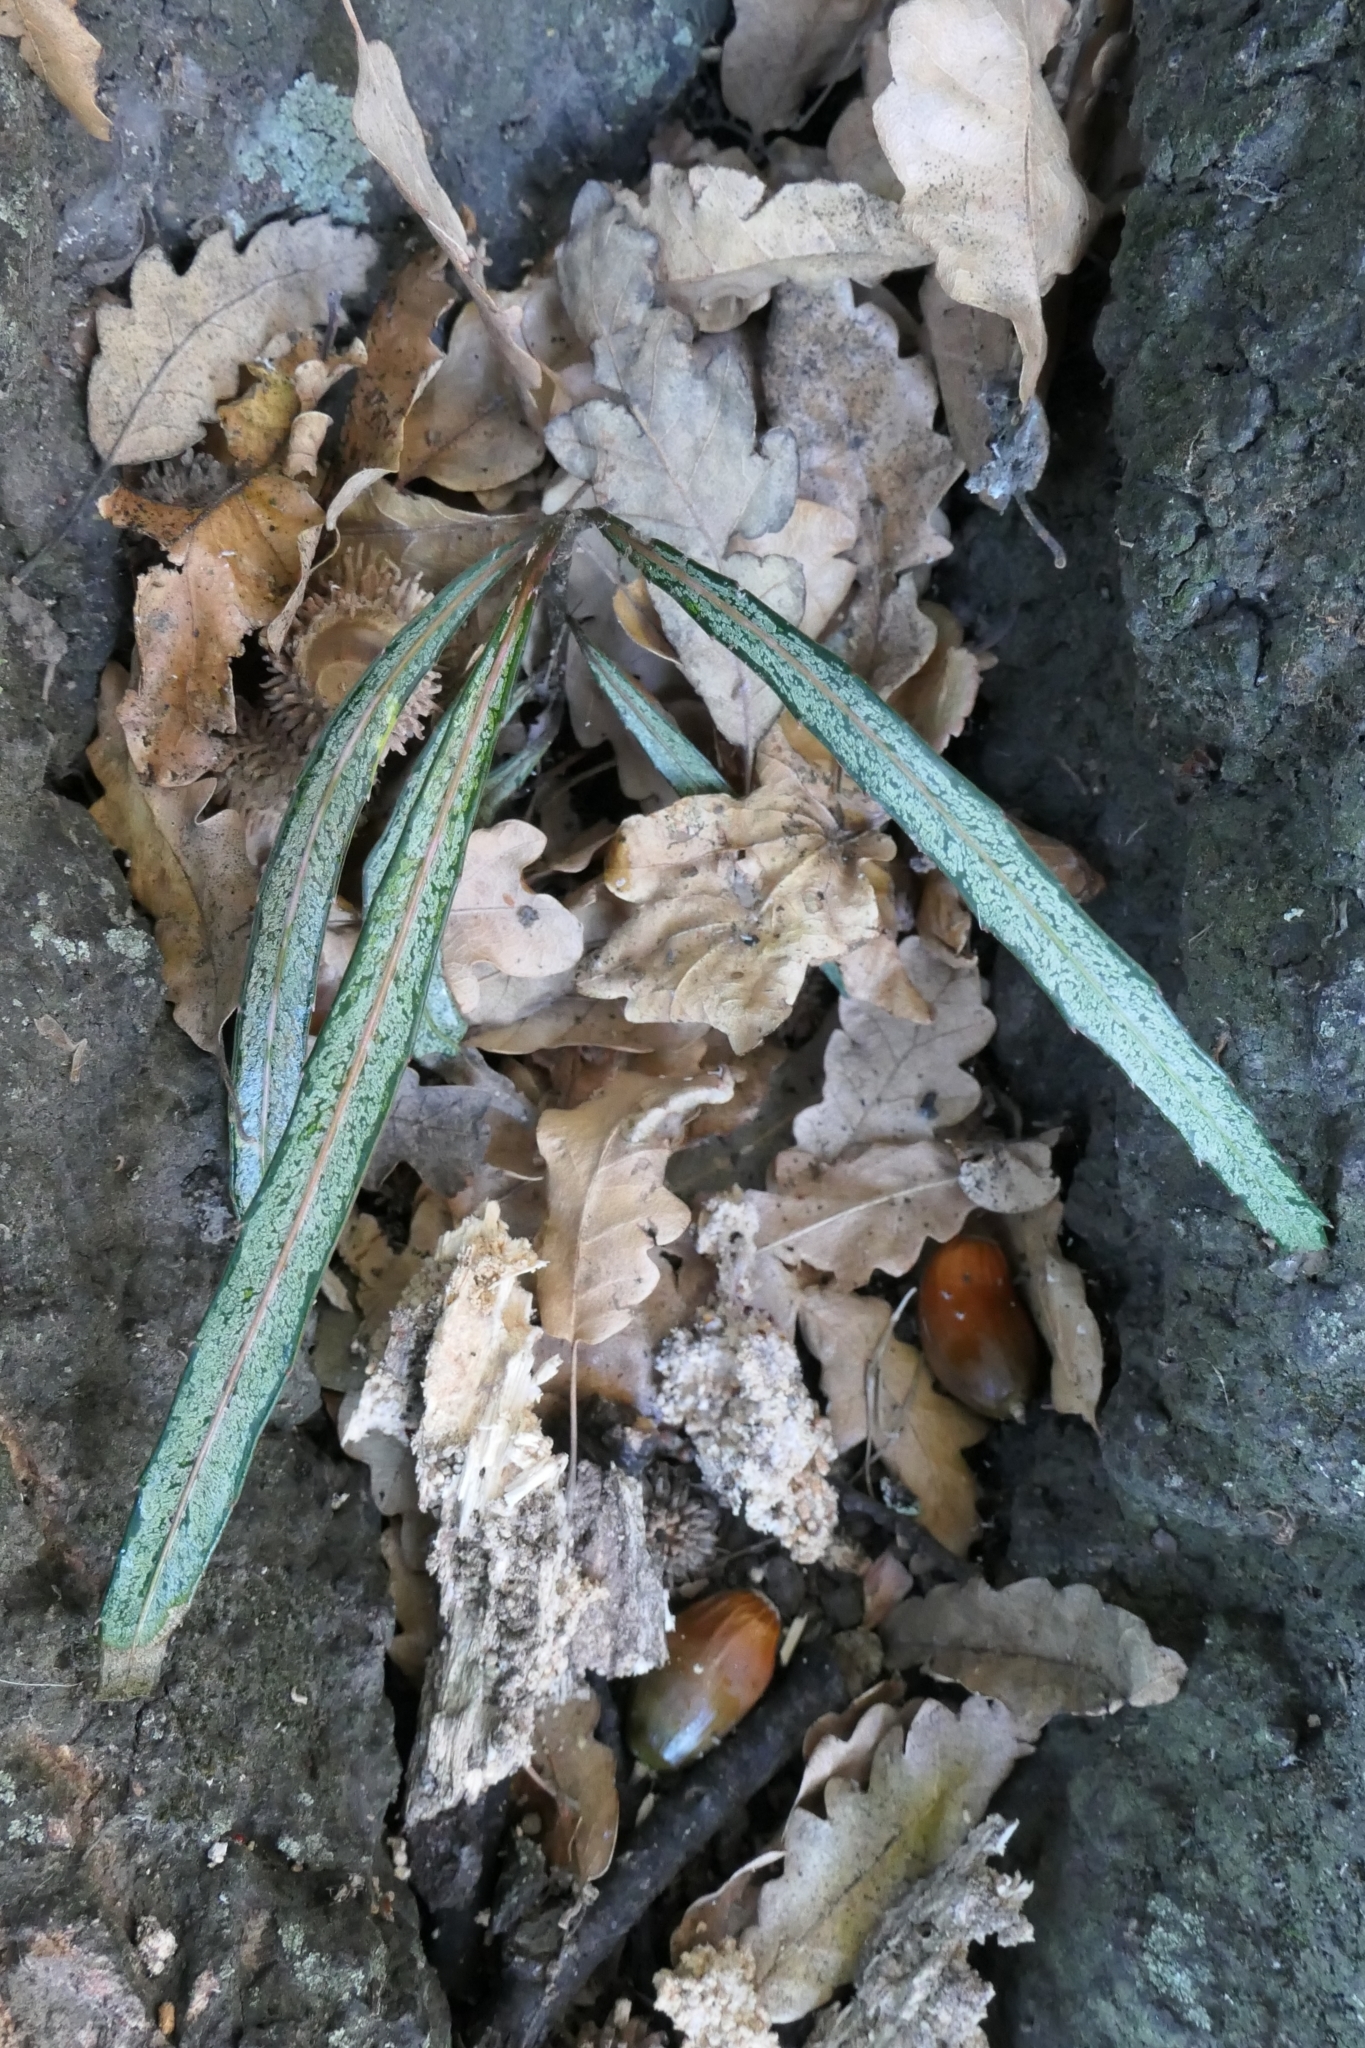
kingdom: Plantae
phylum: Tracheophyta
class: Magnoliopsida
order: Apiales
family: Araliaceae
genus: Pseudopanax
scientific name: Pseudopanax crassifolius
